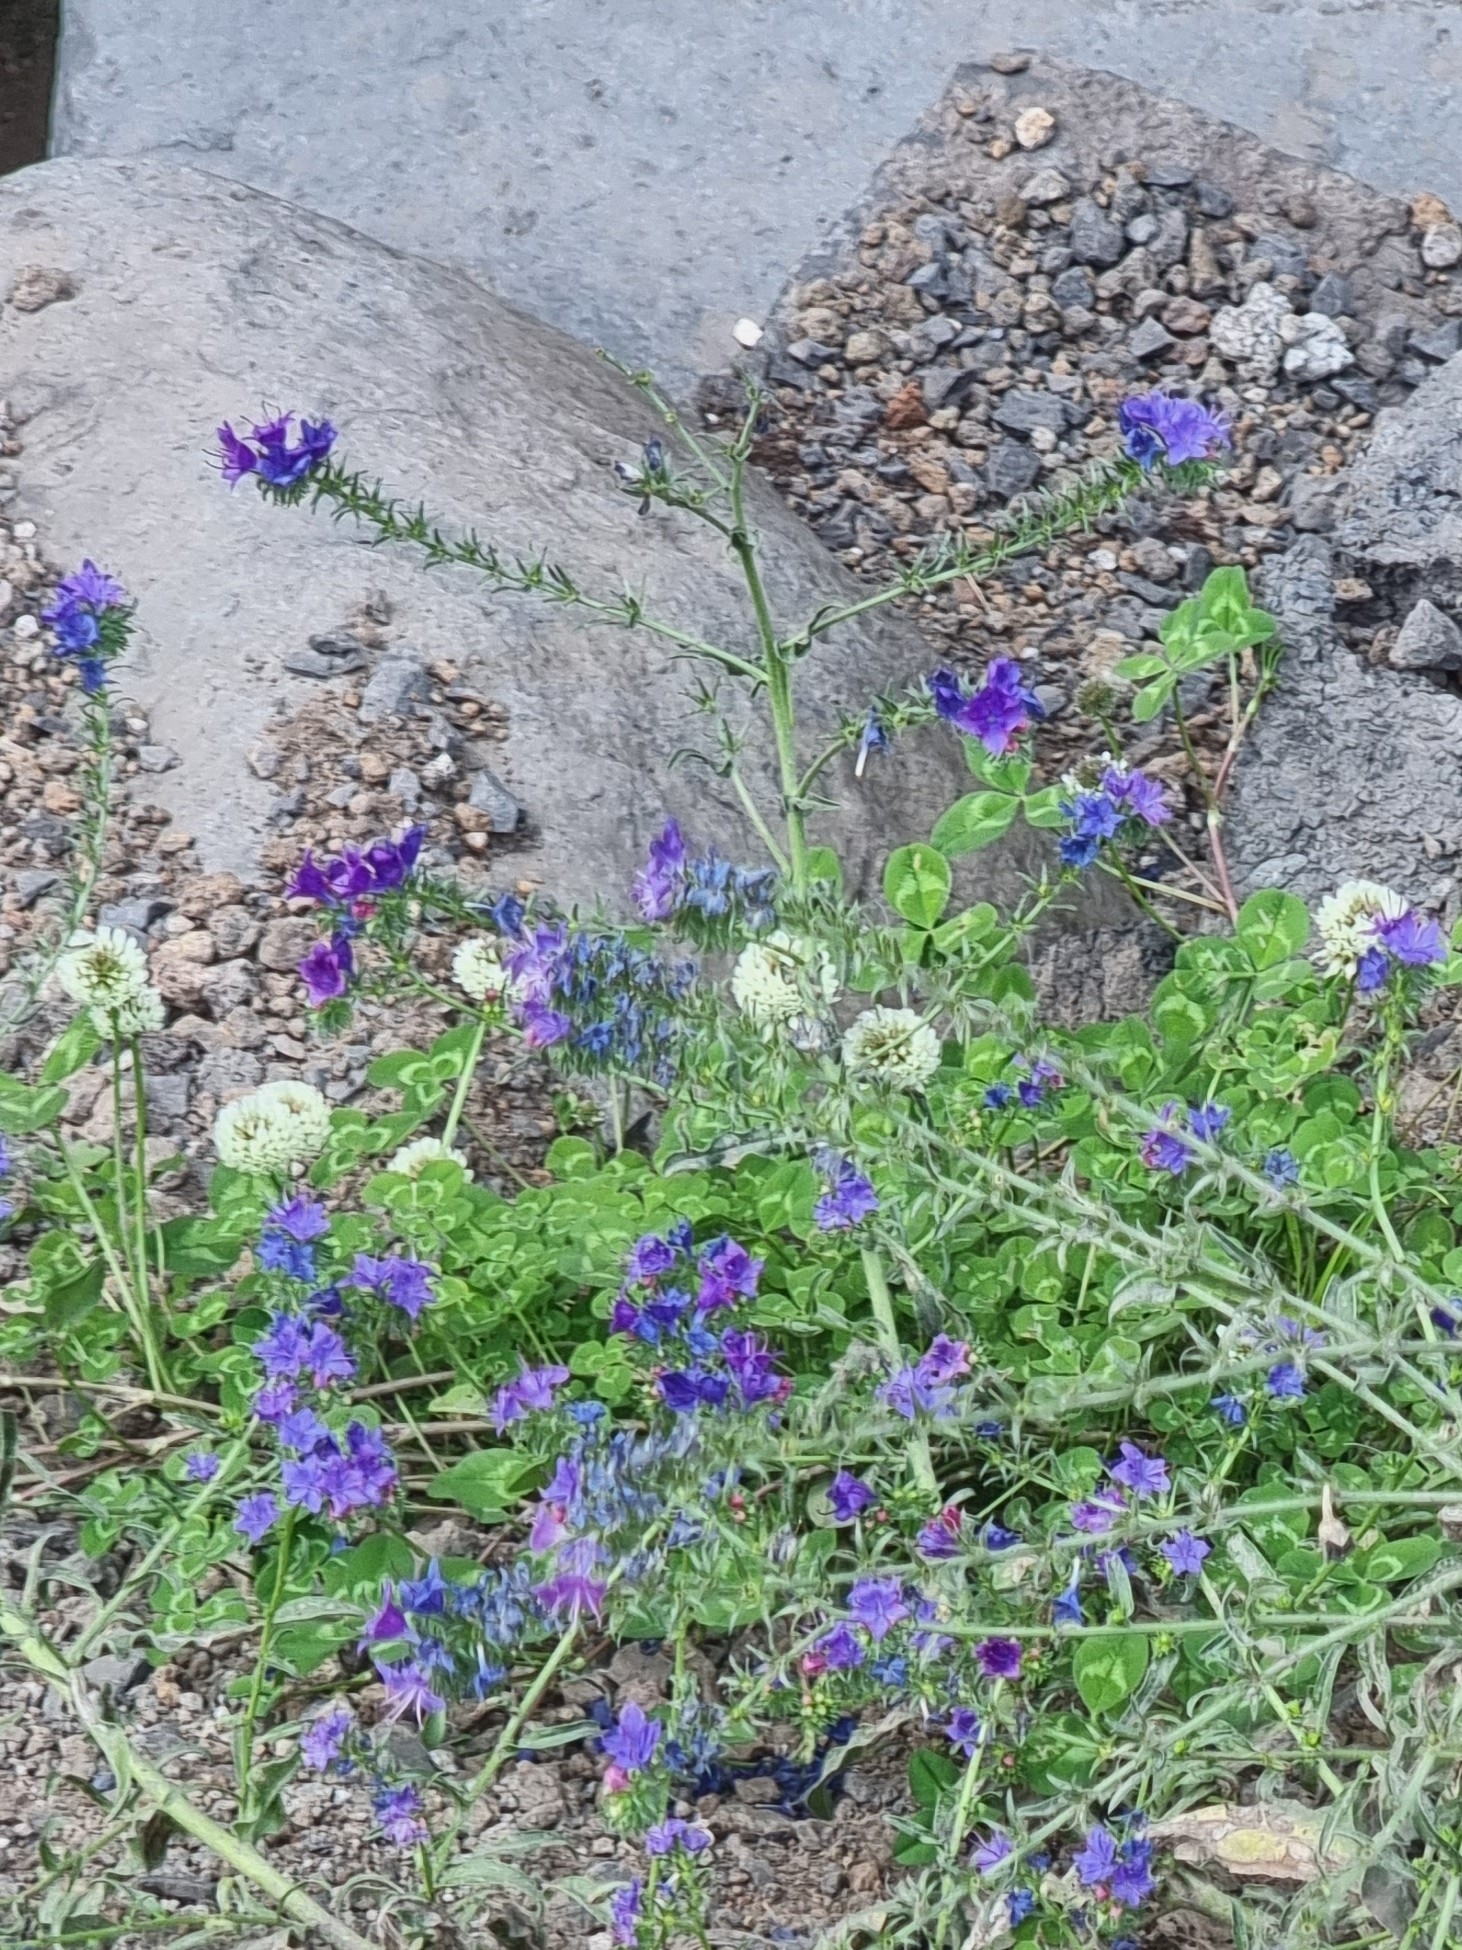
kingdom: Plantae
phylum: Tracheophyta
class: Magnoliopsida
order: Fabales
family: Fabaceae
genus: Trifolium
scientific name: Trifolium repens
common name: White clover
